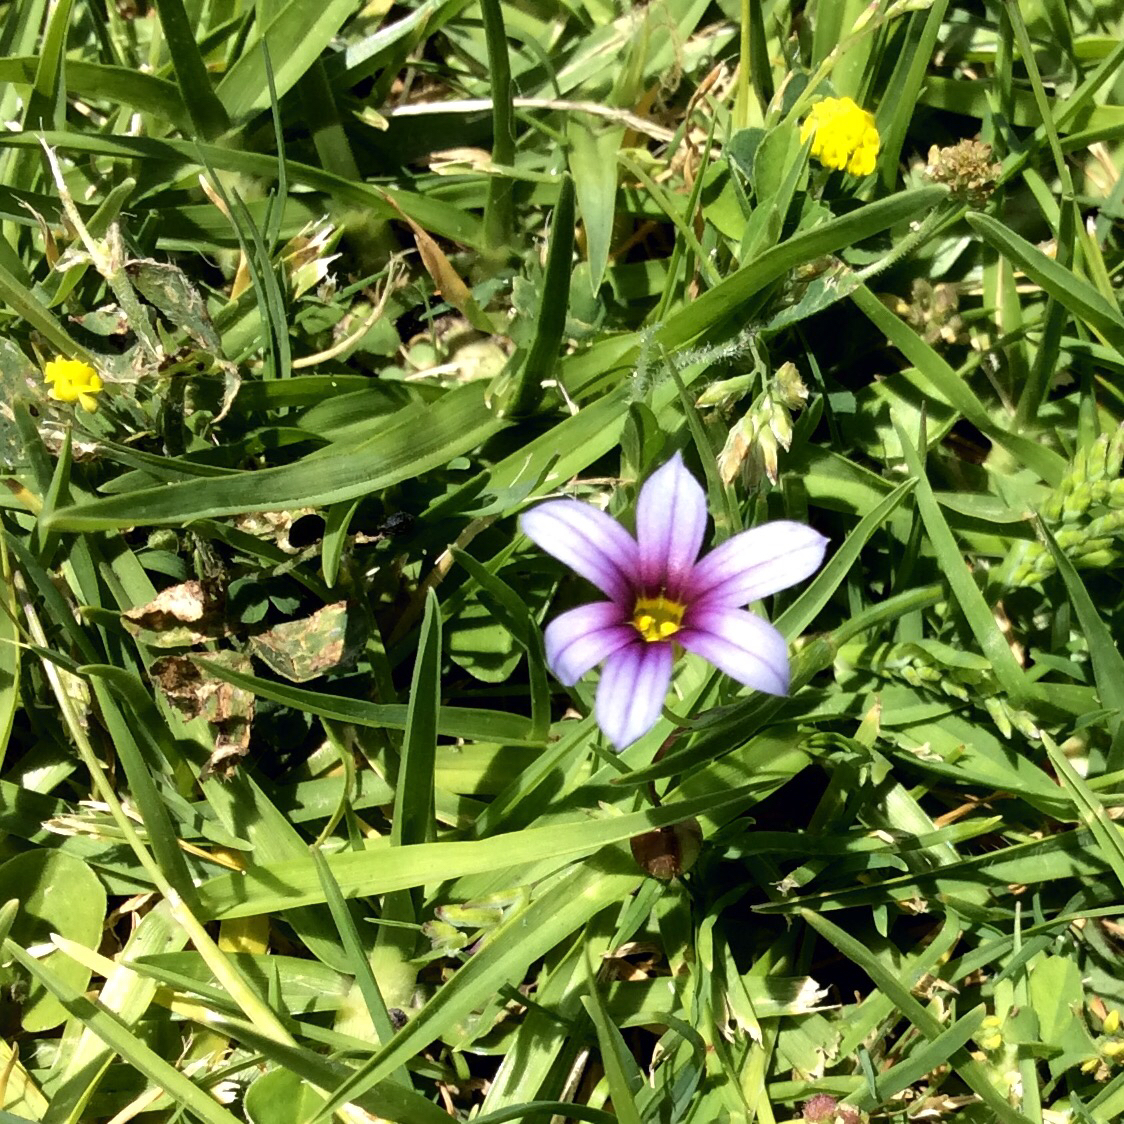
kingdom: Plantae
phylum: Tracheophyta
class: Liliopsida
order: Asparagales
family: Iridaceae
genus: Sisyrinchium
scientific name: Sisyrinchium micranthum
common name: Bermuda pigroot
